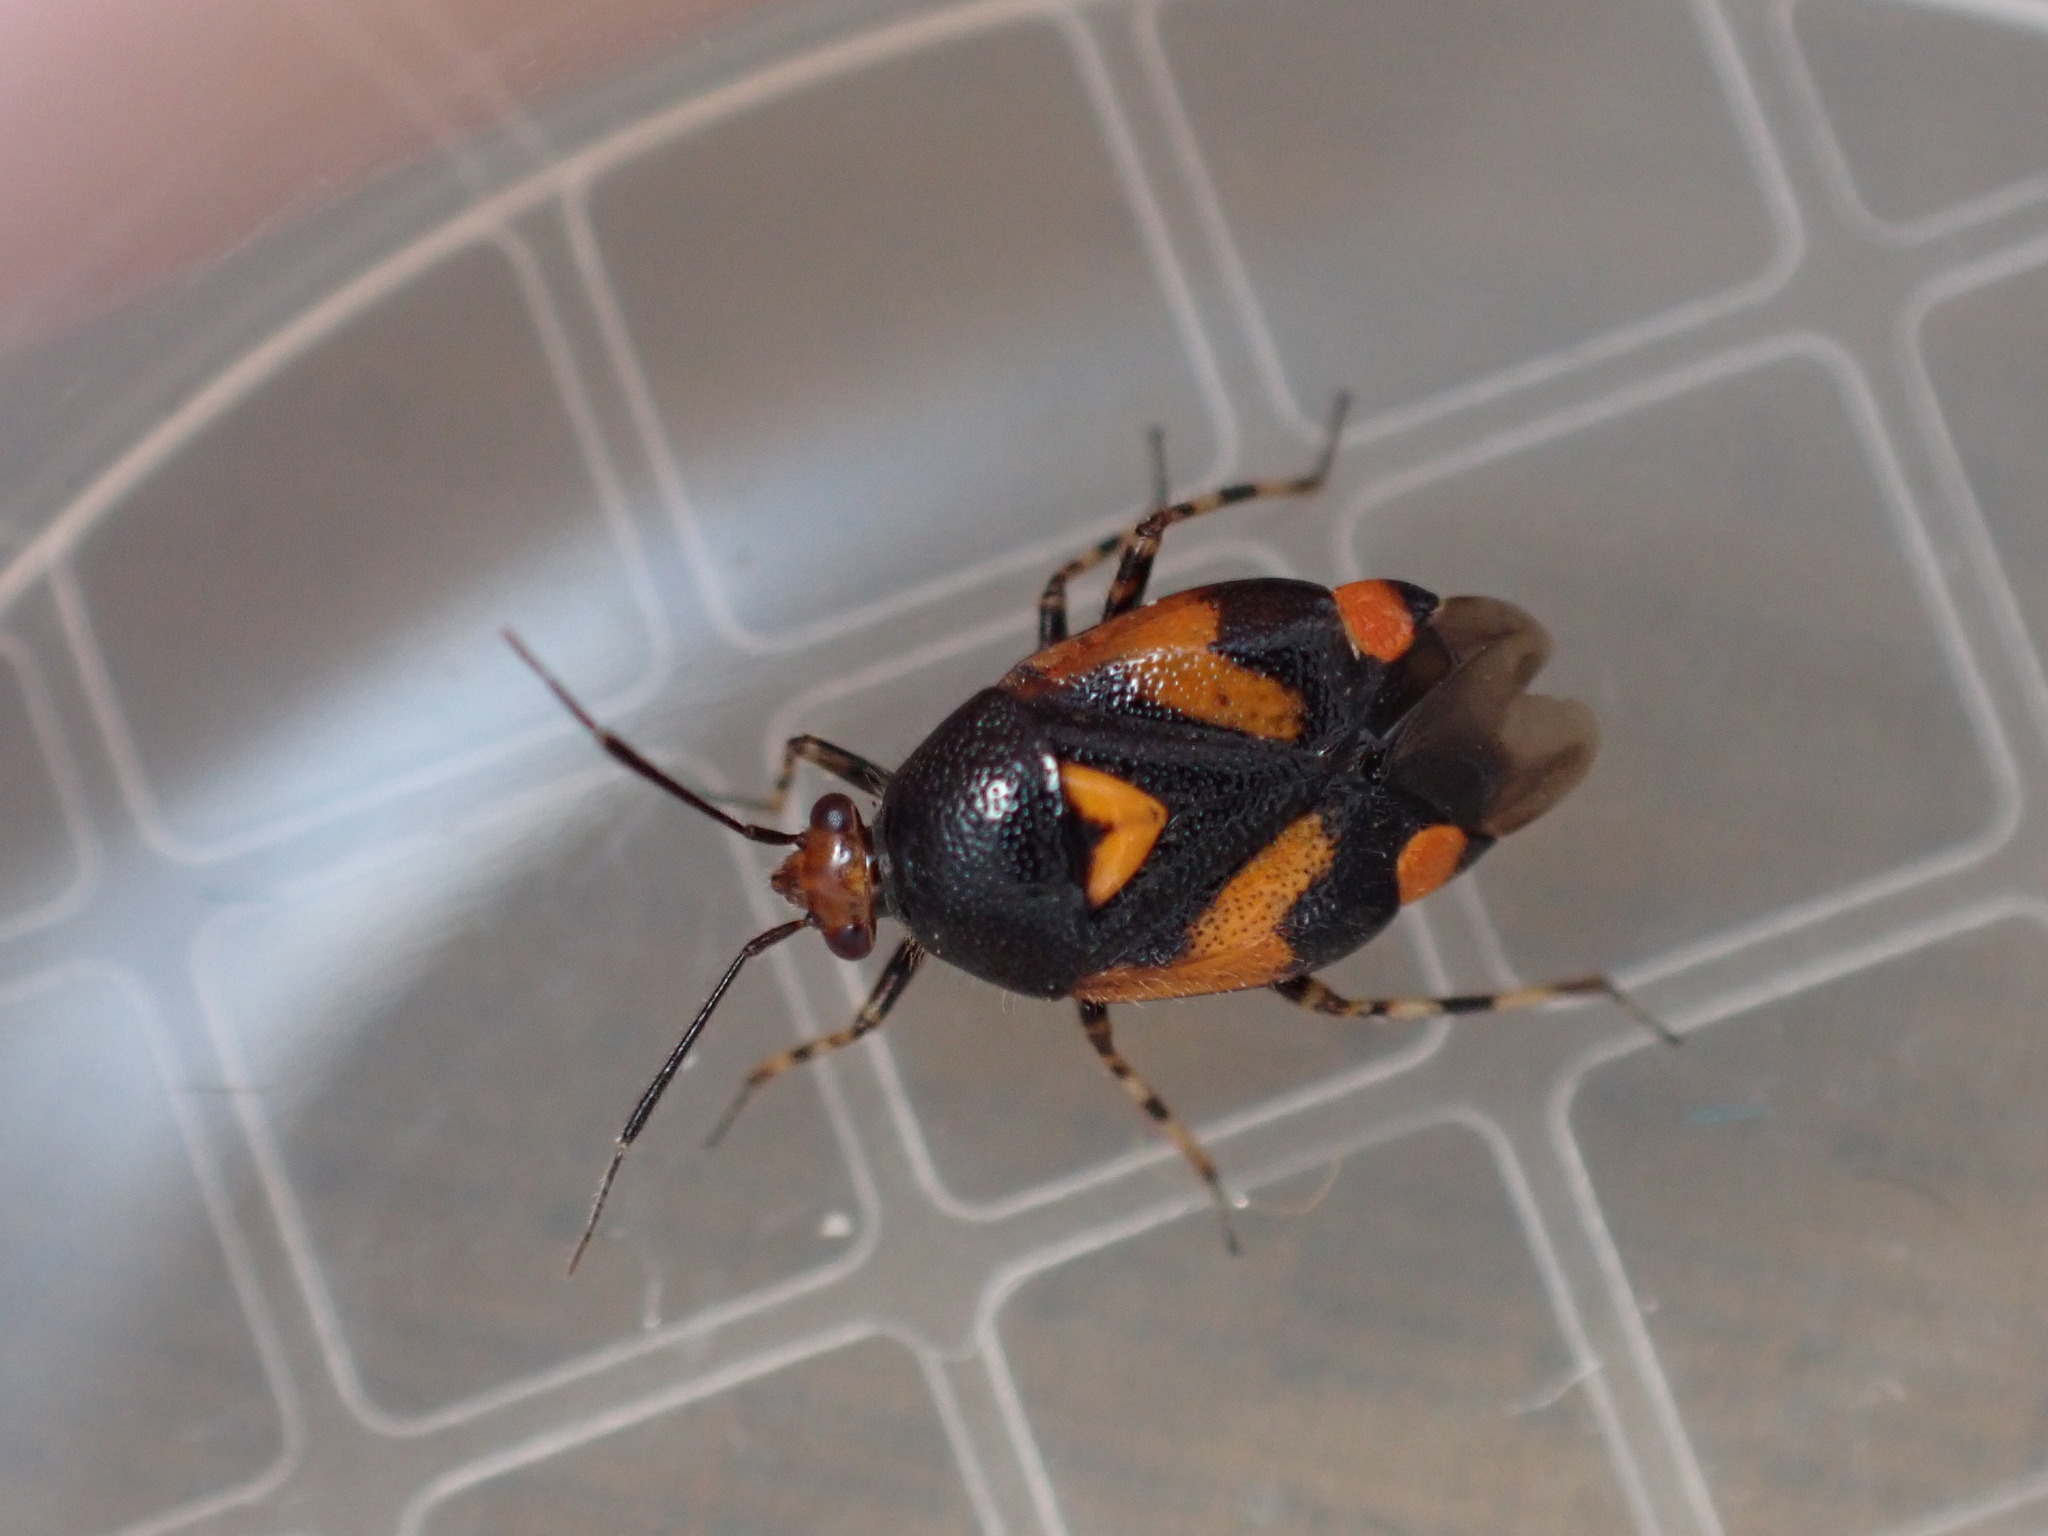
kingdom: Animalia
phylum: Arthropoda
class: Insecta
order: Hemiptera
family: Miridae
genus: Deraeocoris
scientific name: Deraeocoris schach
